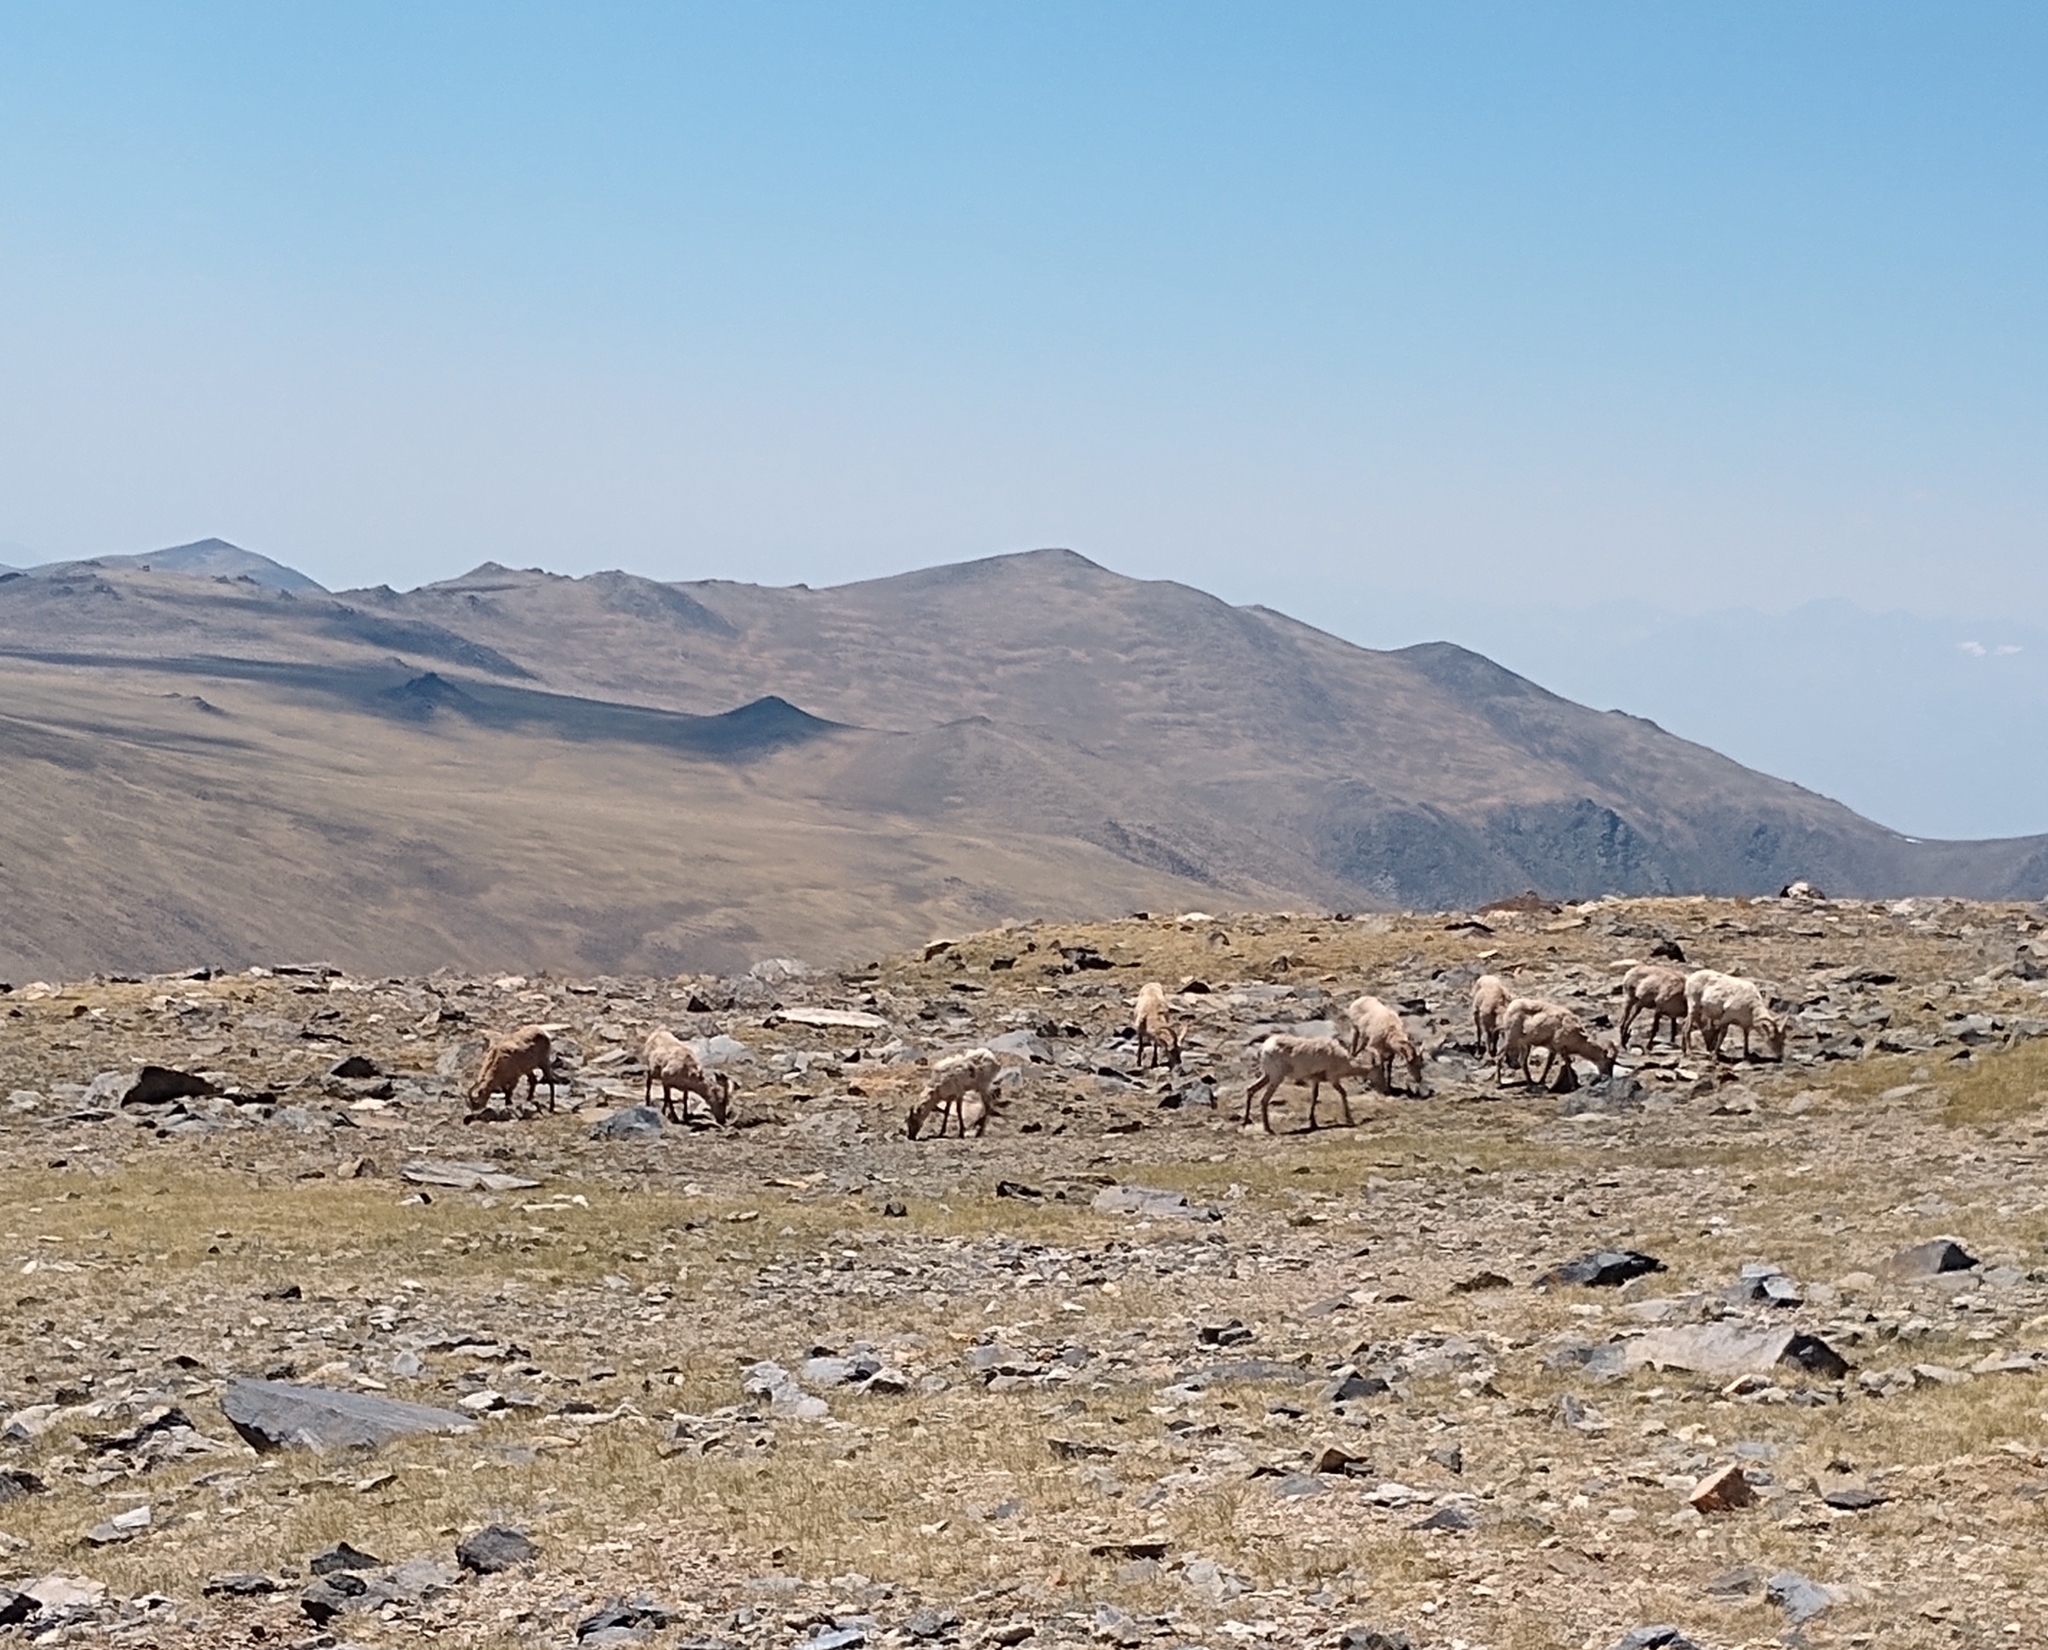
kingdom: Animalia
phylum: Chordata
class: Mammalia
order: Artiodactyla
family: Bovidae
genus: Ovis
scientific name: Ovis canadensis
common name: Bighorn sheep
